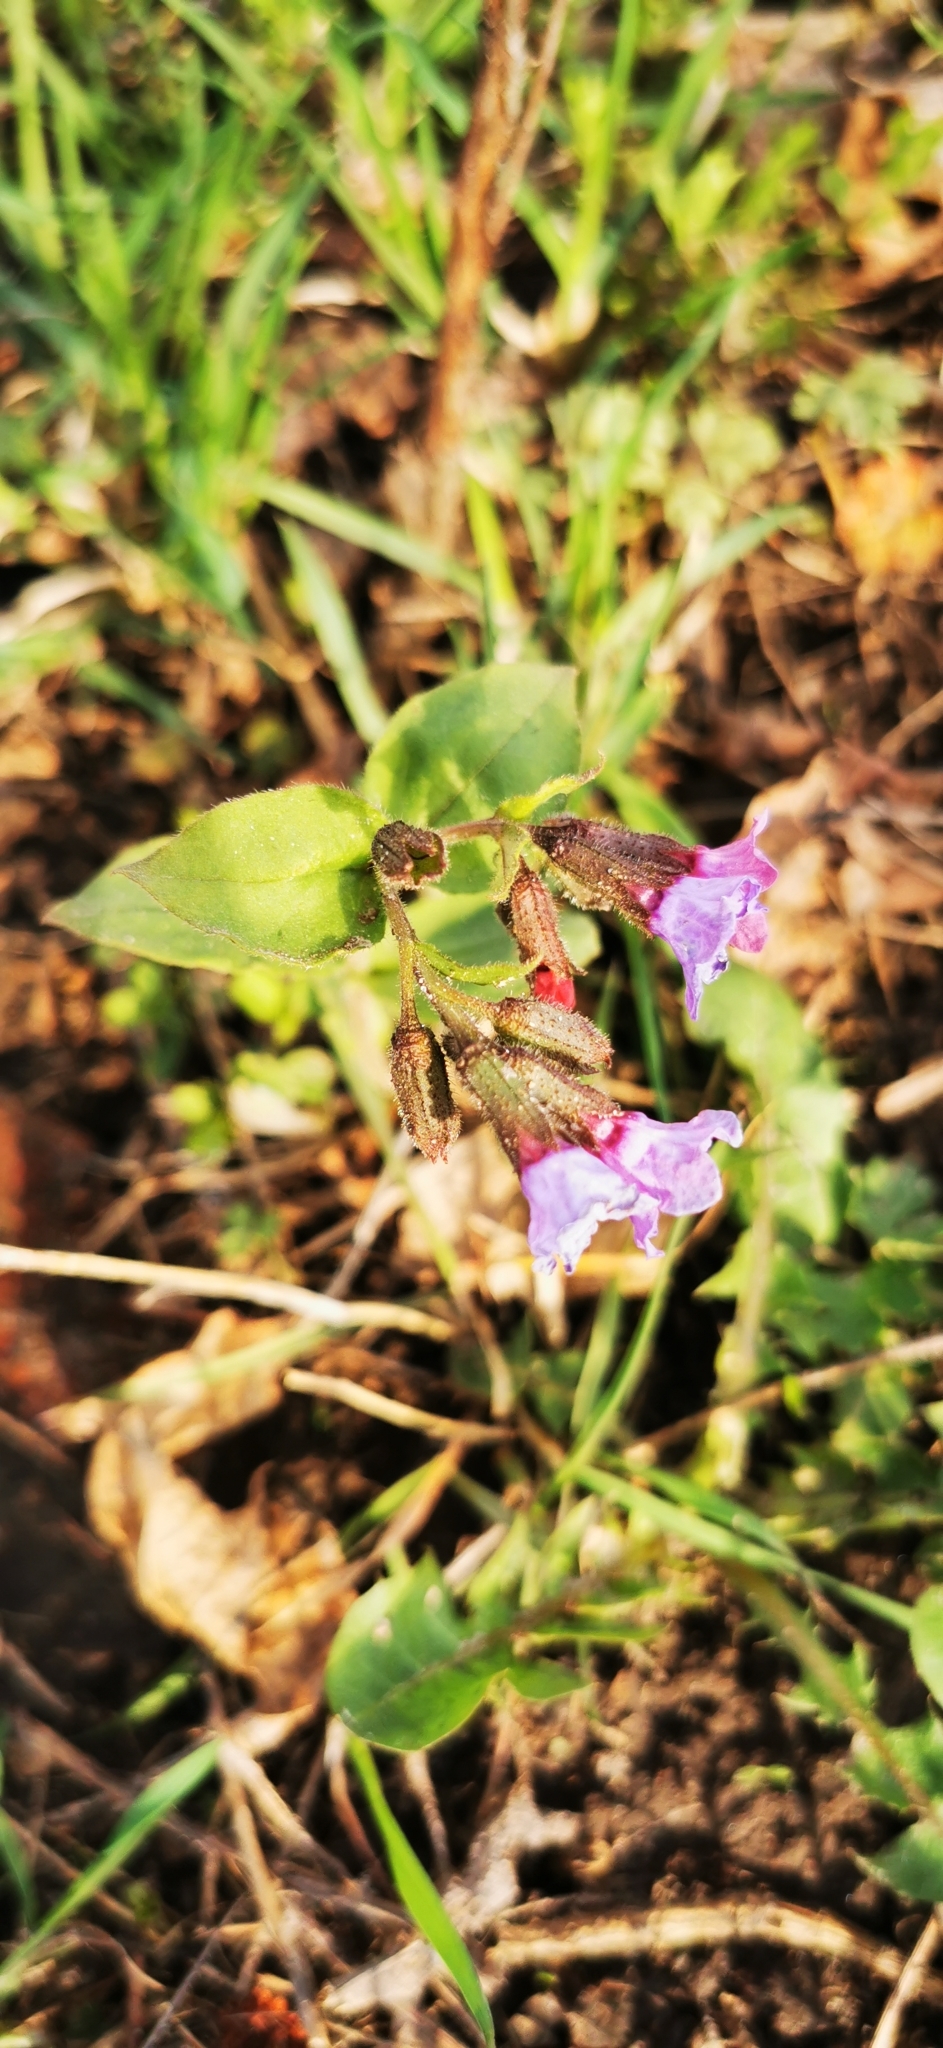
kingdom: Plantae
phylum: Tracheophyta
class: Magnoliopsida
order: Boraginales
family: Boraginaceae
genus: Pulmonaria
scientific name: Pulmonaria obscura
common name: Suffolk lungwort
